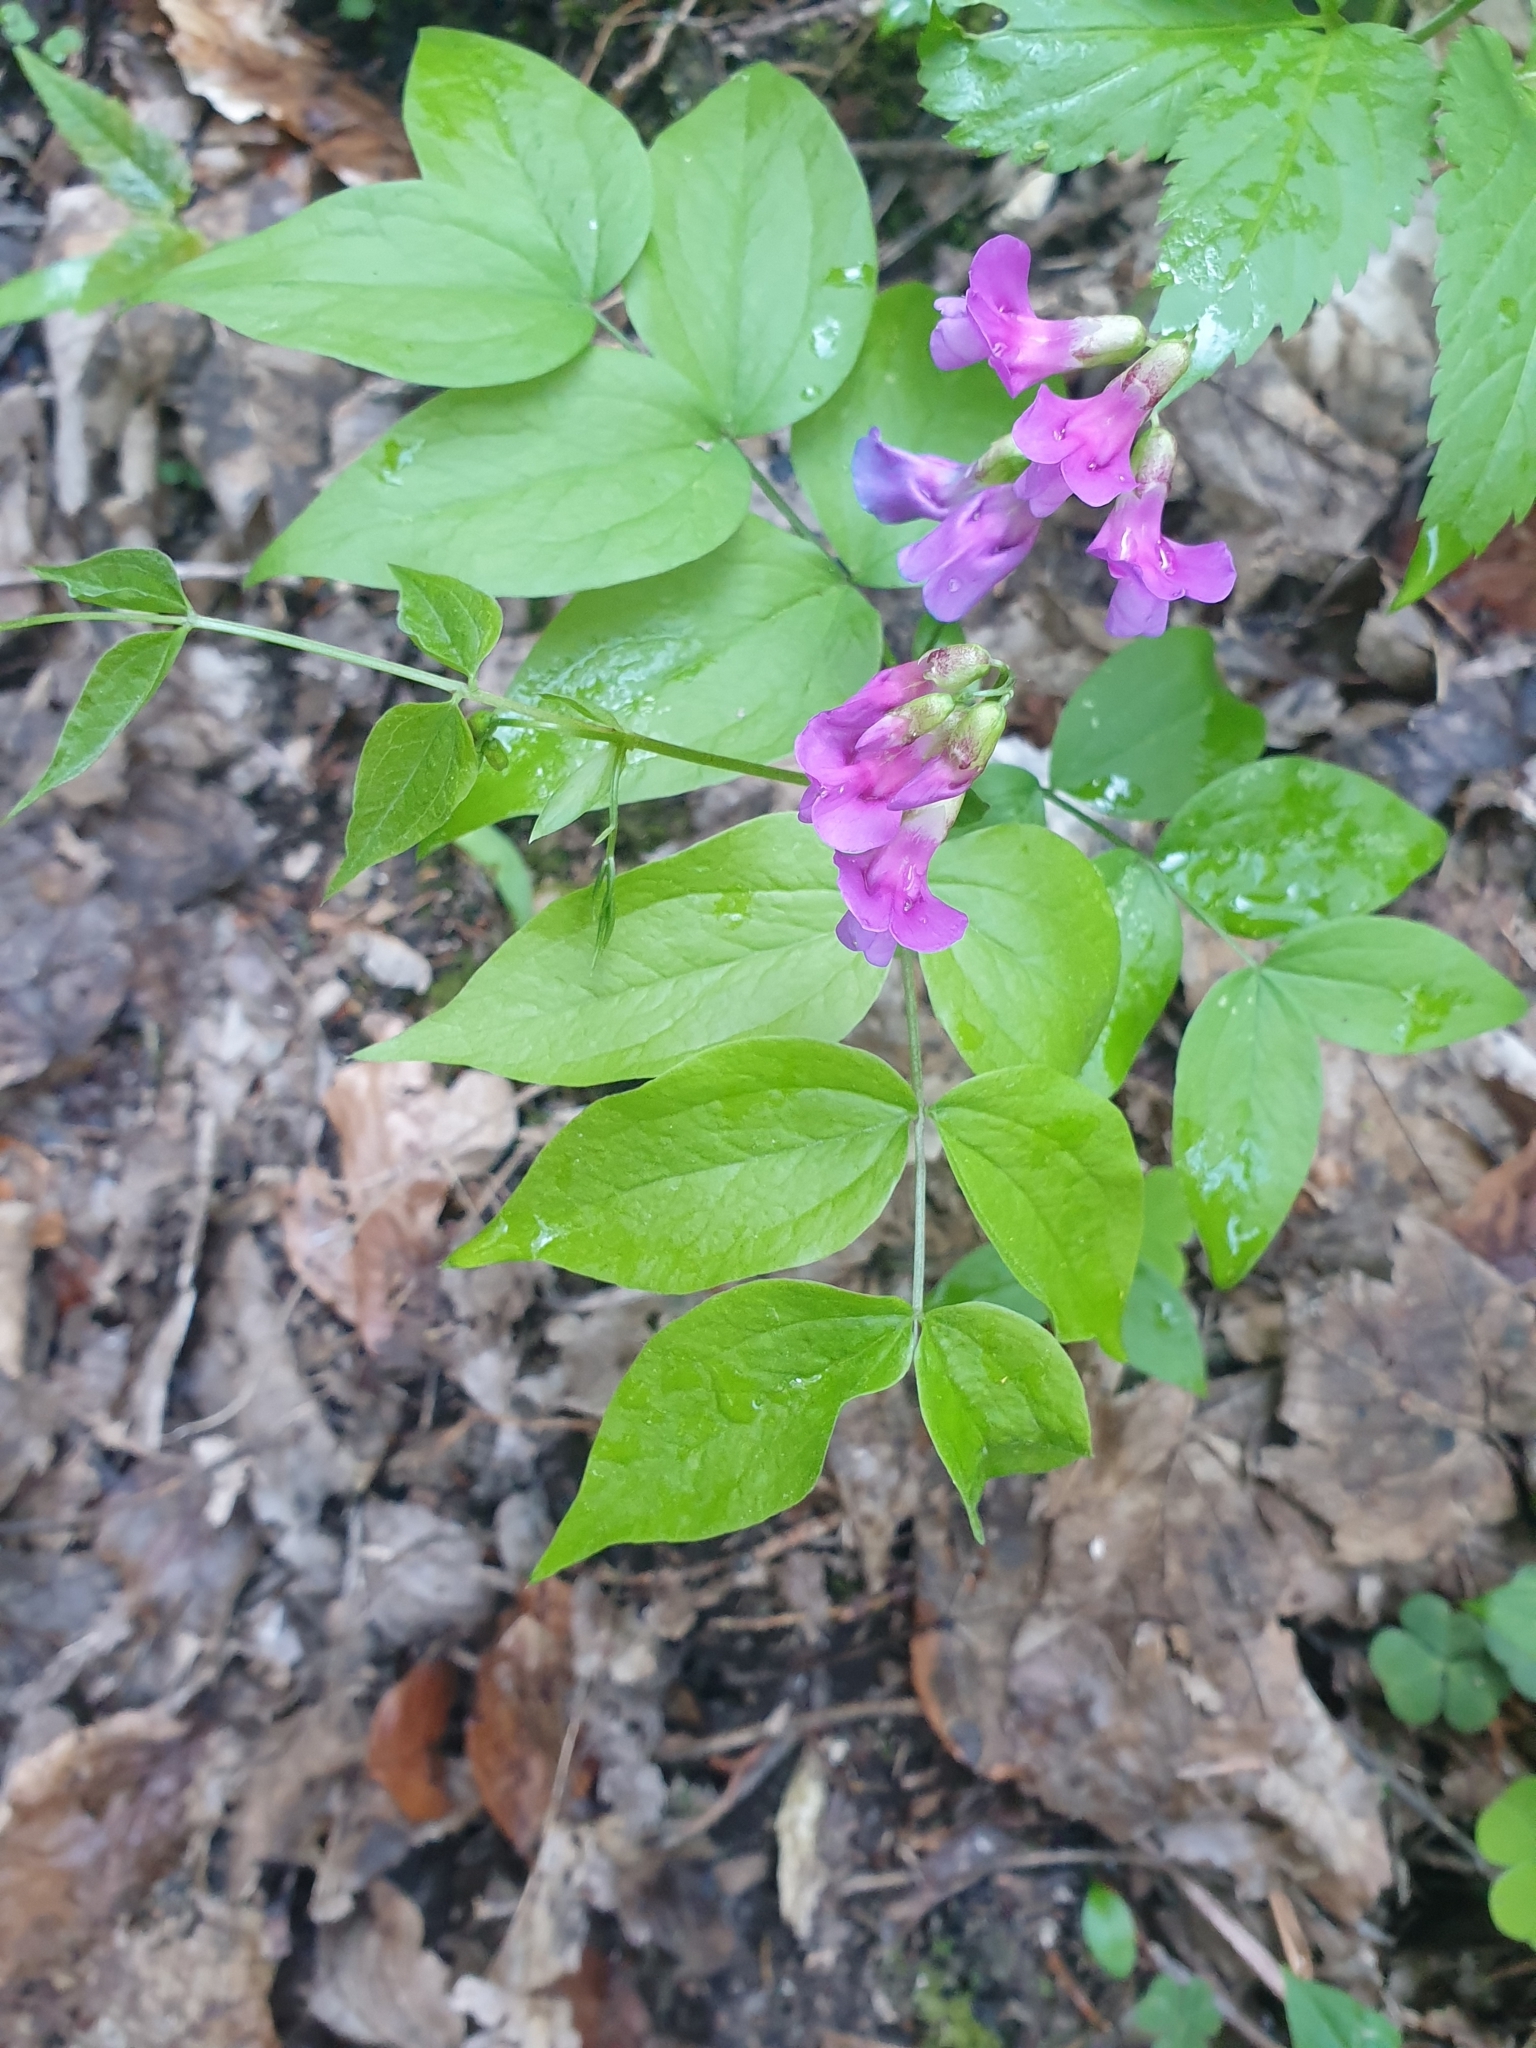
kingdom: Plantae
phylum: Tracheophyta
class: Magnoliopsida
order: Fabales
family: Fabaceae
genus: Lathyrus
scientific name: Lathyrus vernus
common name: Spring pea
